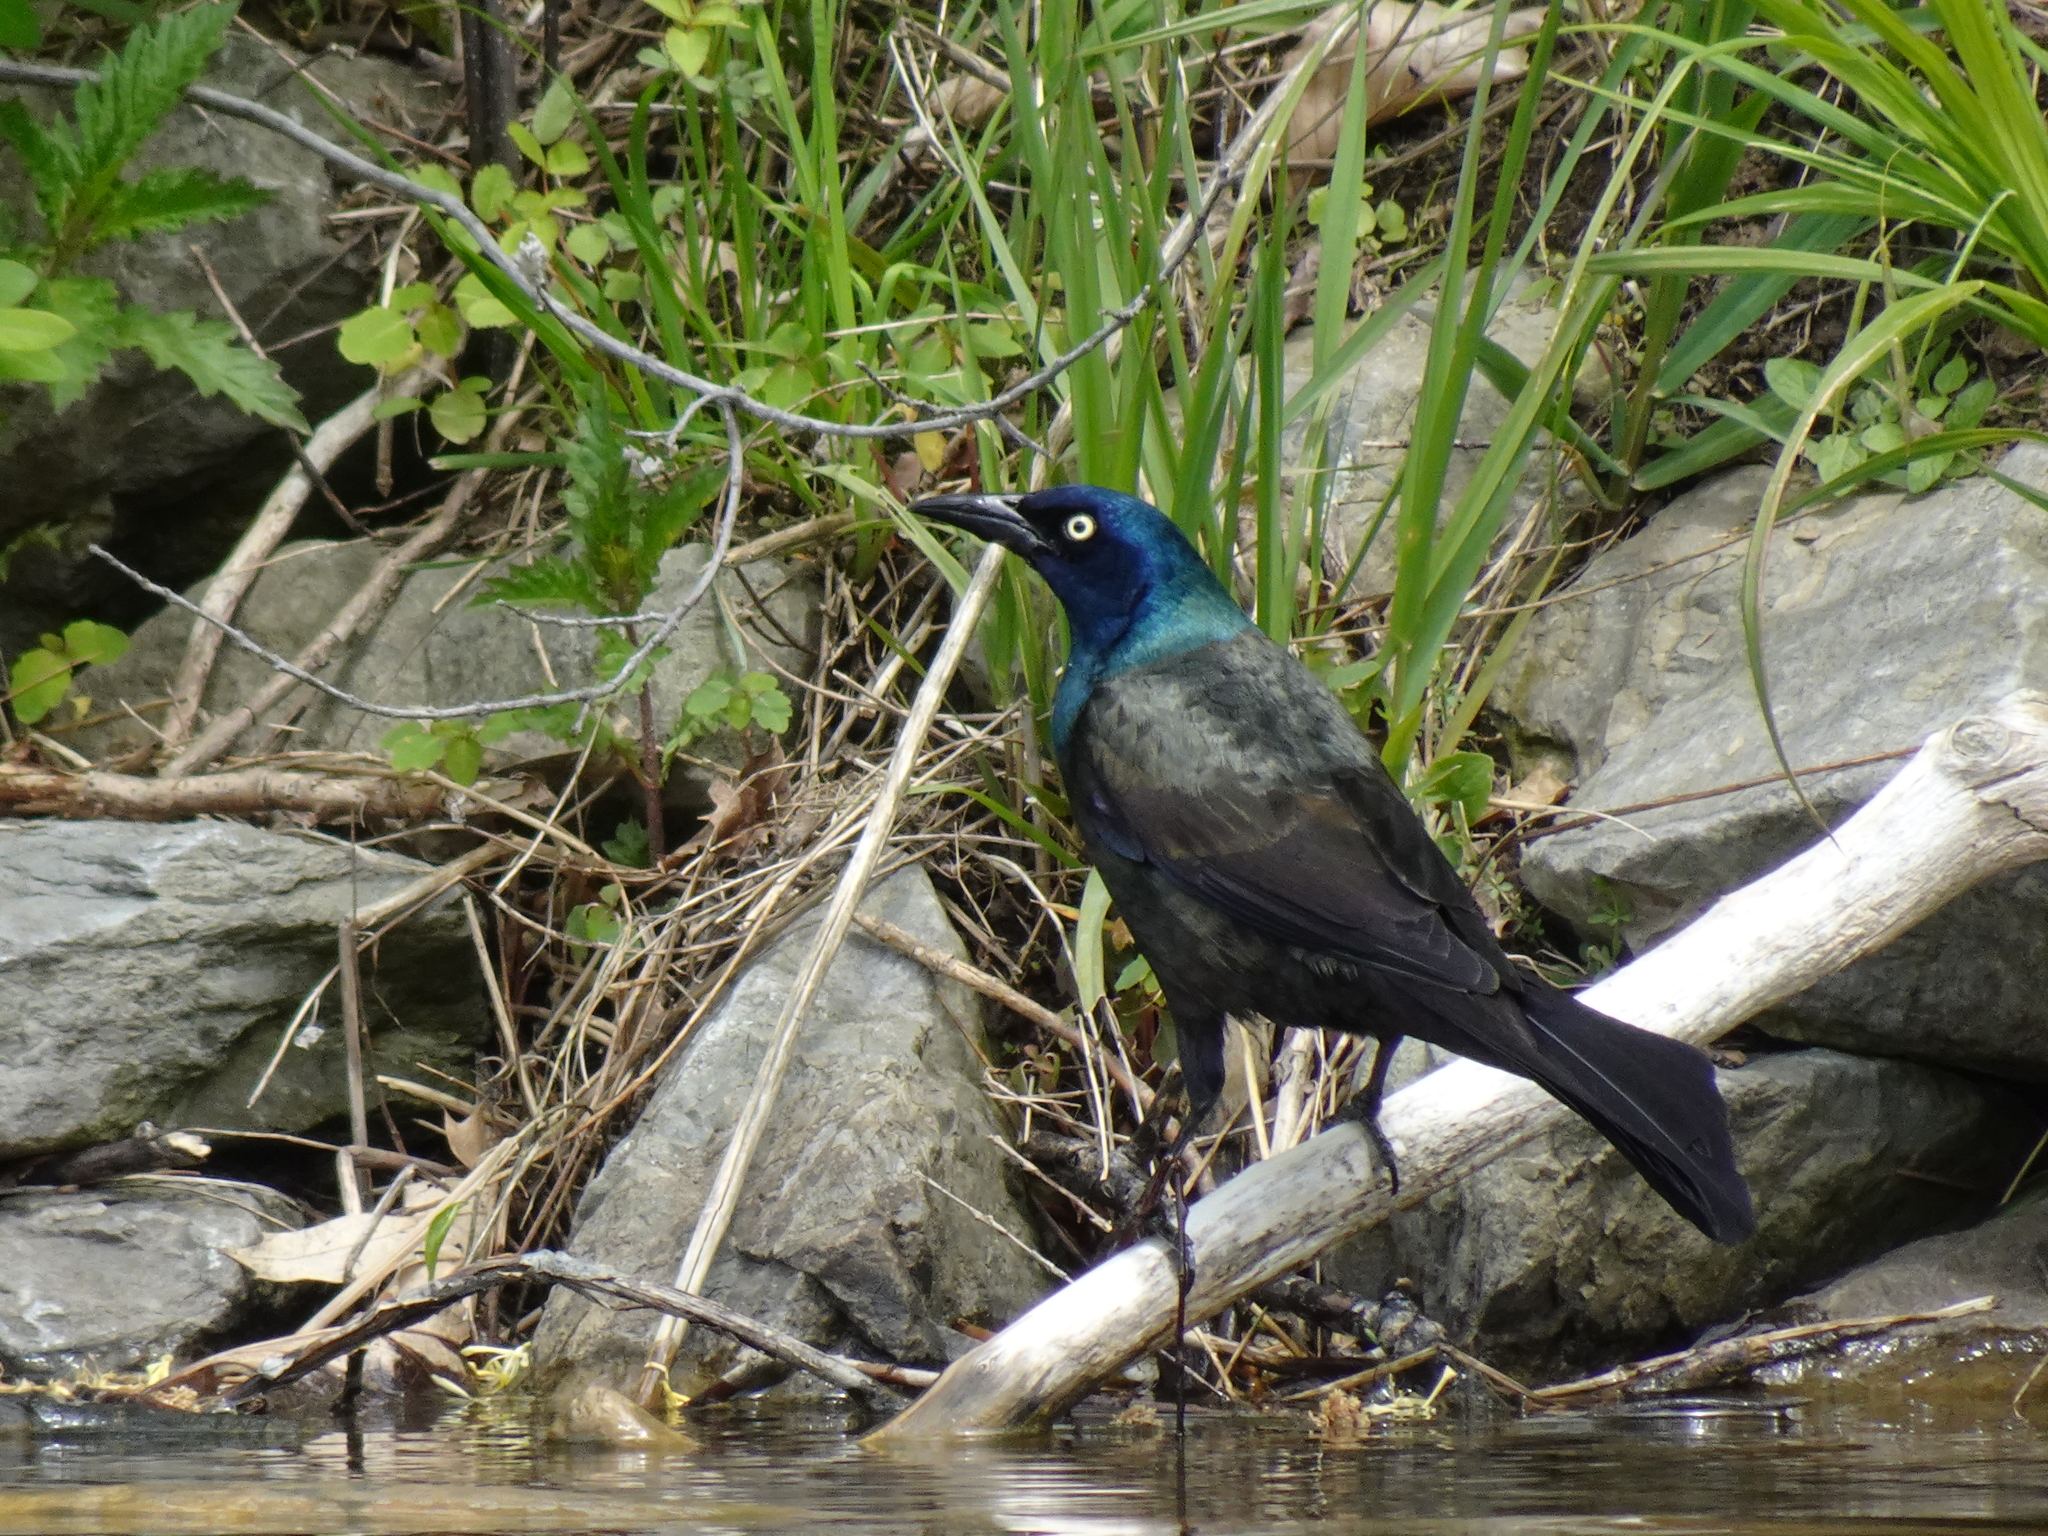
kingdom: Animalia
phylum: Chordata
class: Aves
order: Passeriformes
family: Icteridae
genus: Quiscalus
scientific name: Quiscalus quiscula
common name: Common grackle
